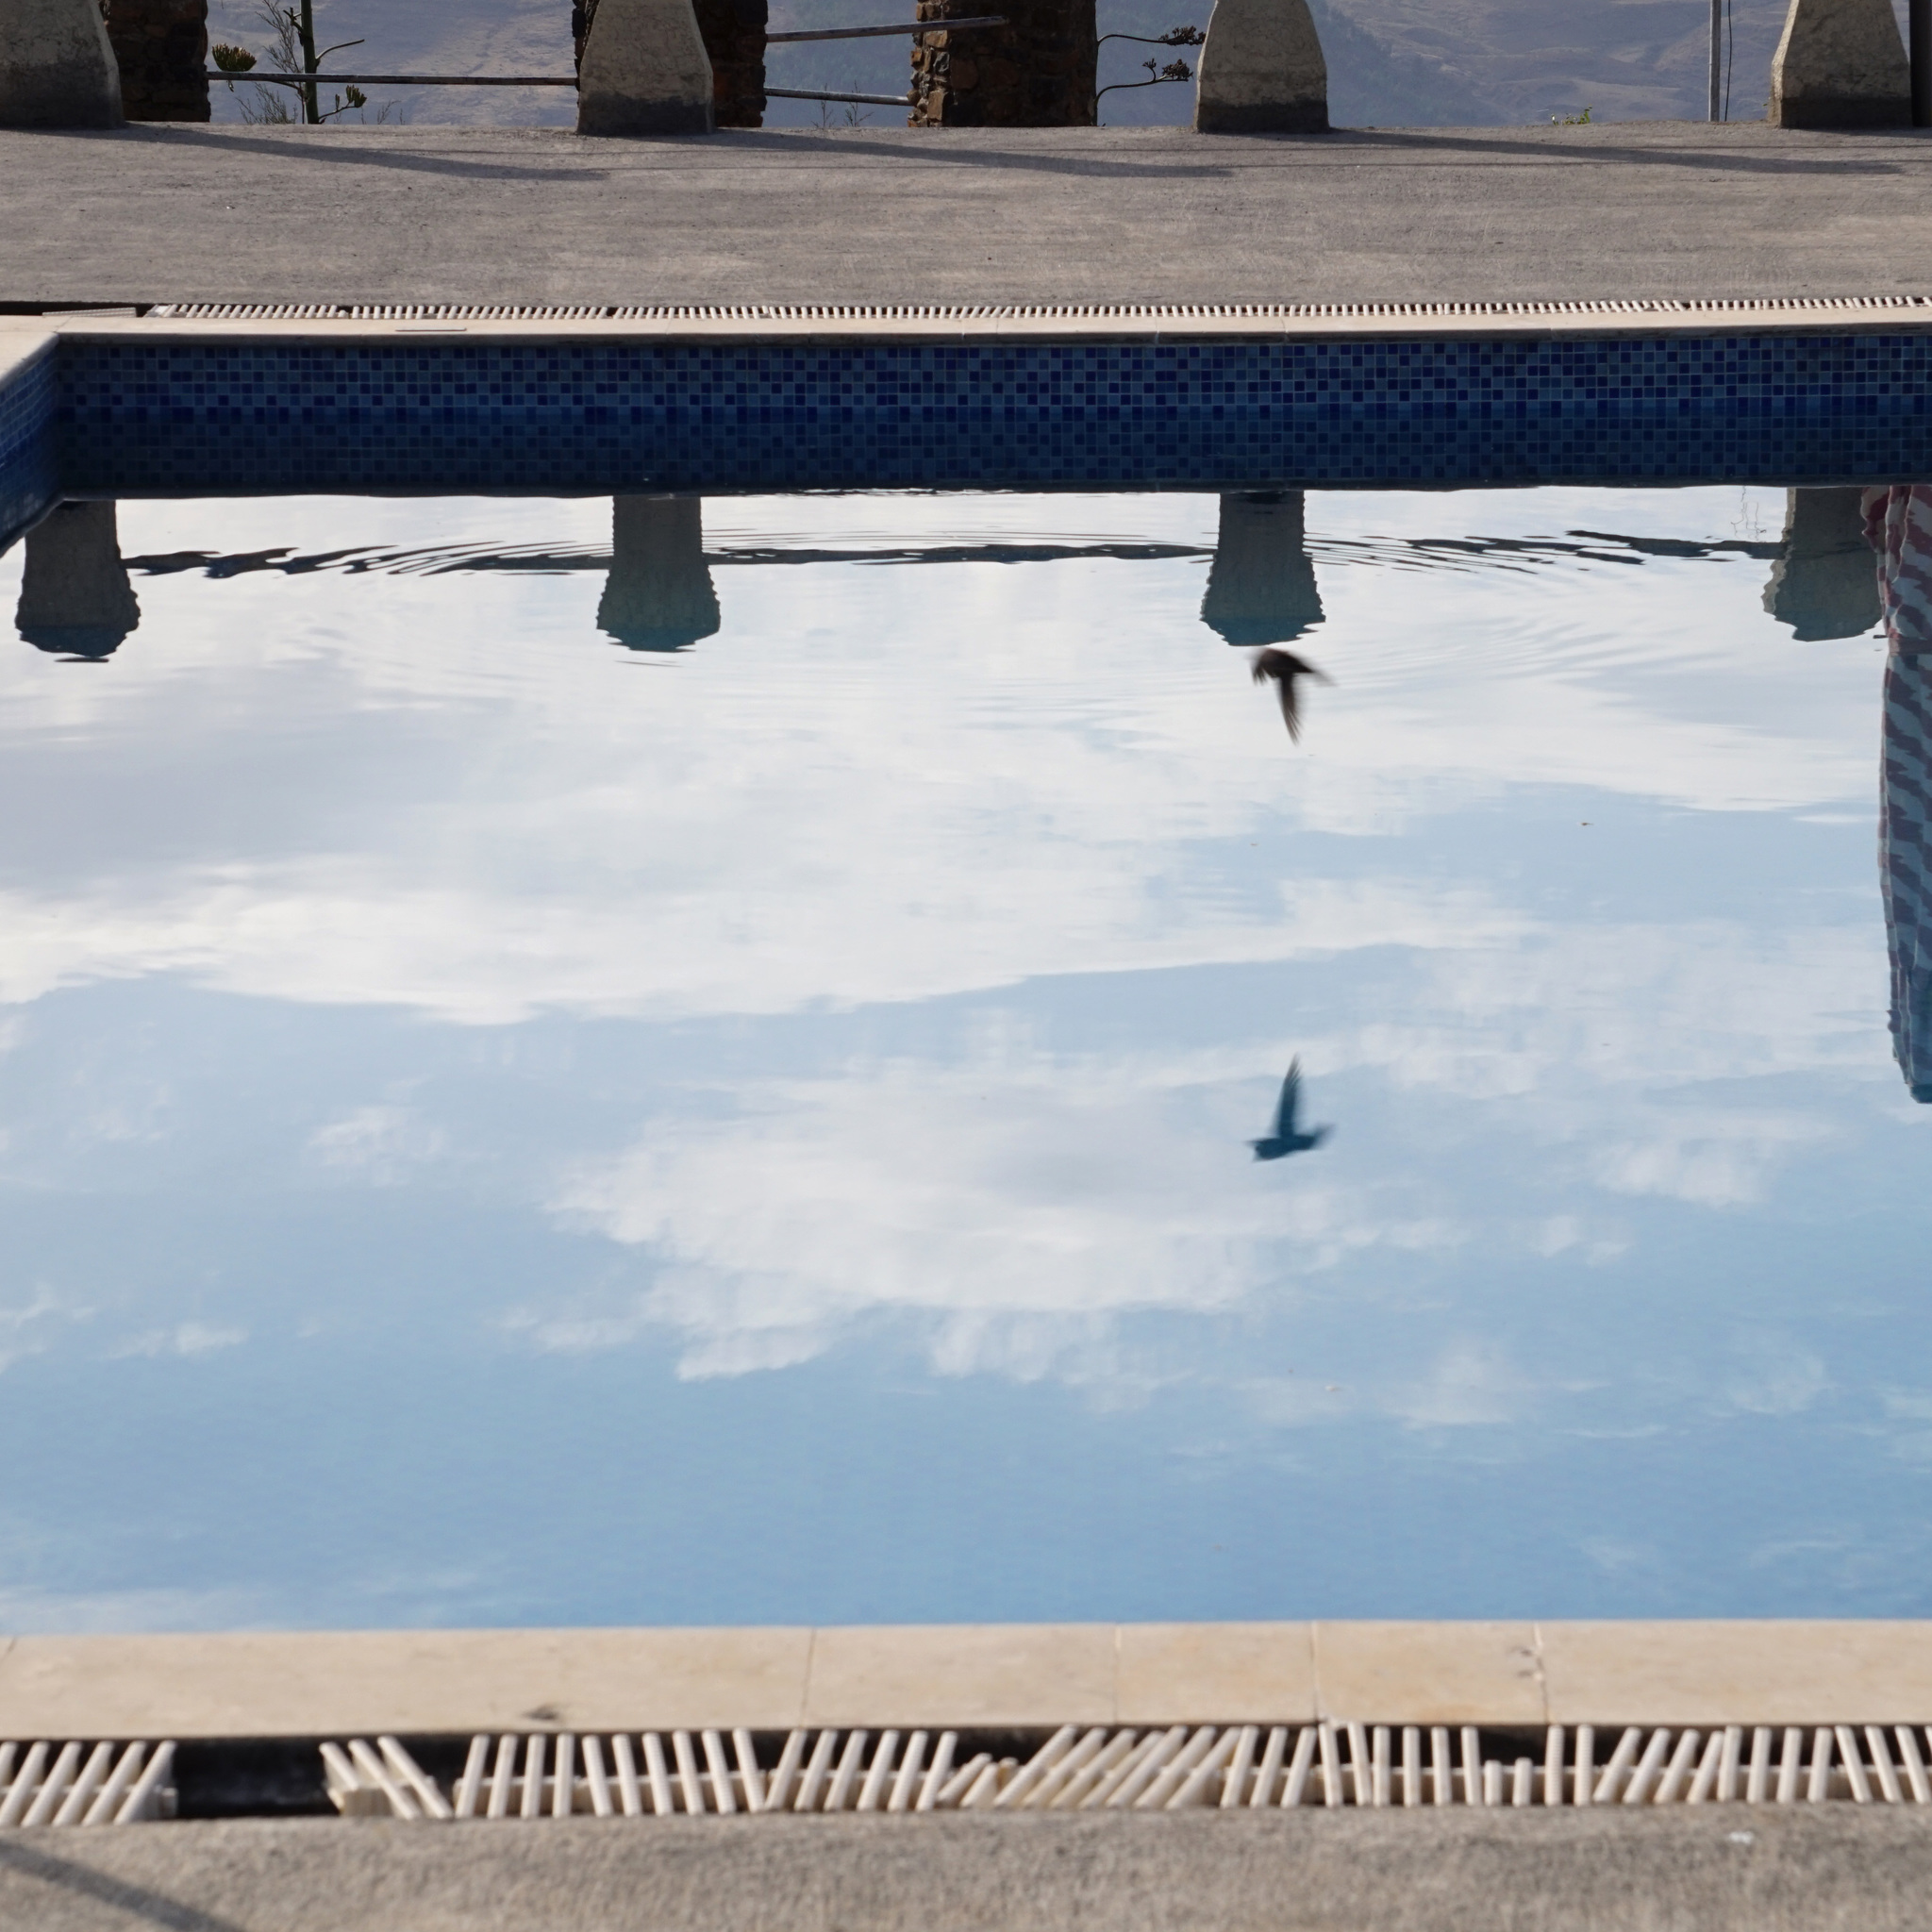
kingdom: Animalia
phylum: Chordata
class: Aves
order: Passeriformes
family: Hirundinidae
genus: Ptyonoprogne
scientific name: Ptyonoprogne fuligula
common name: Rock martin
